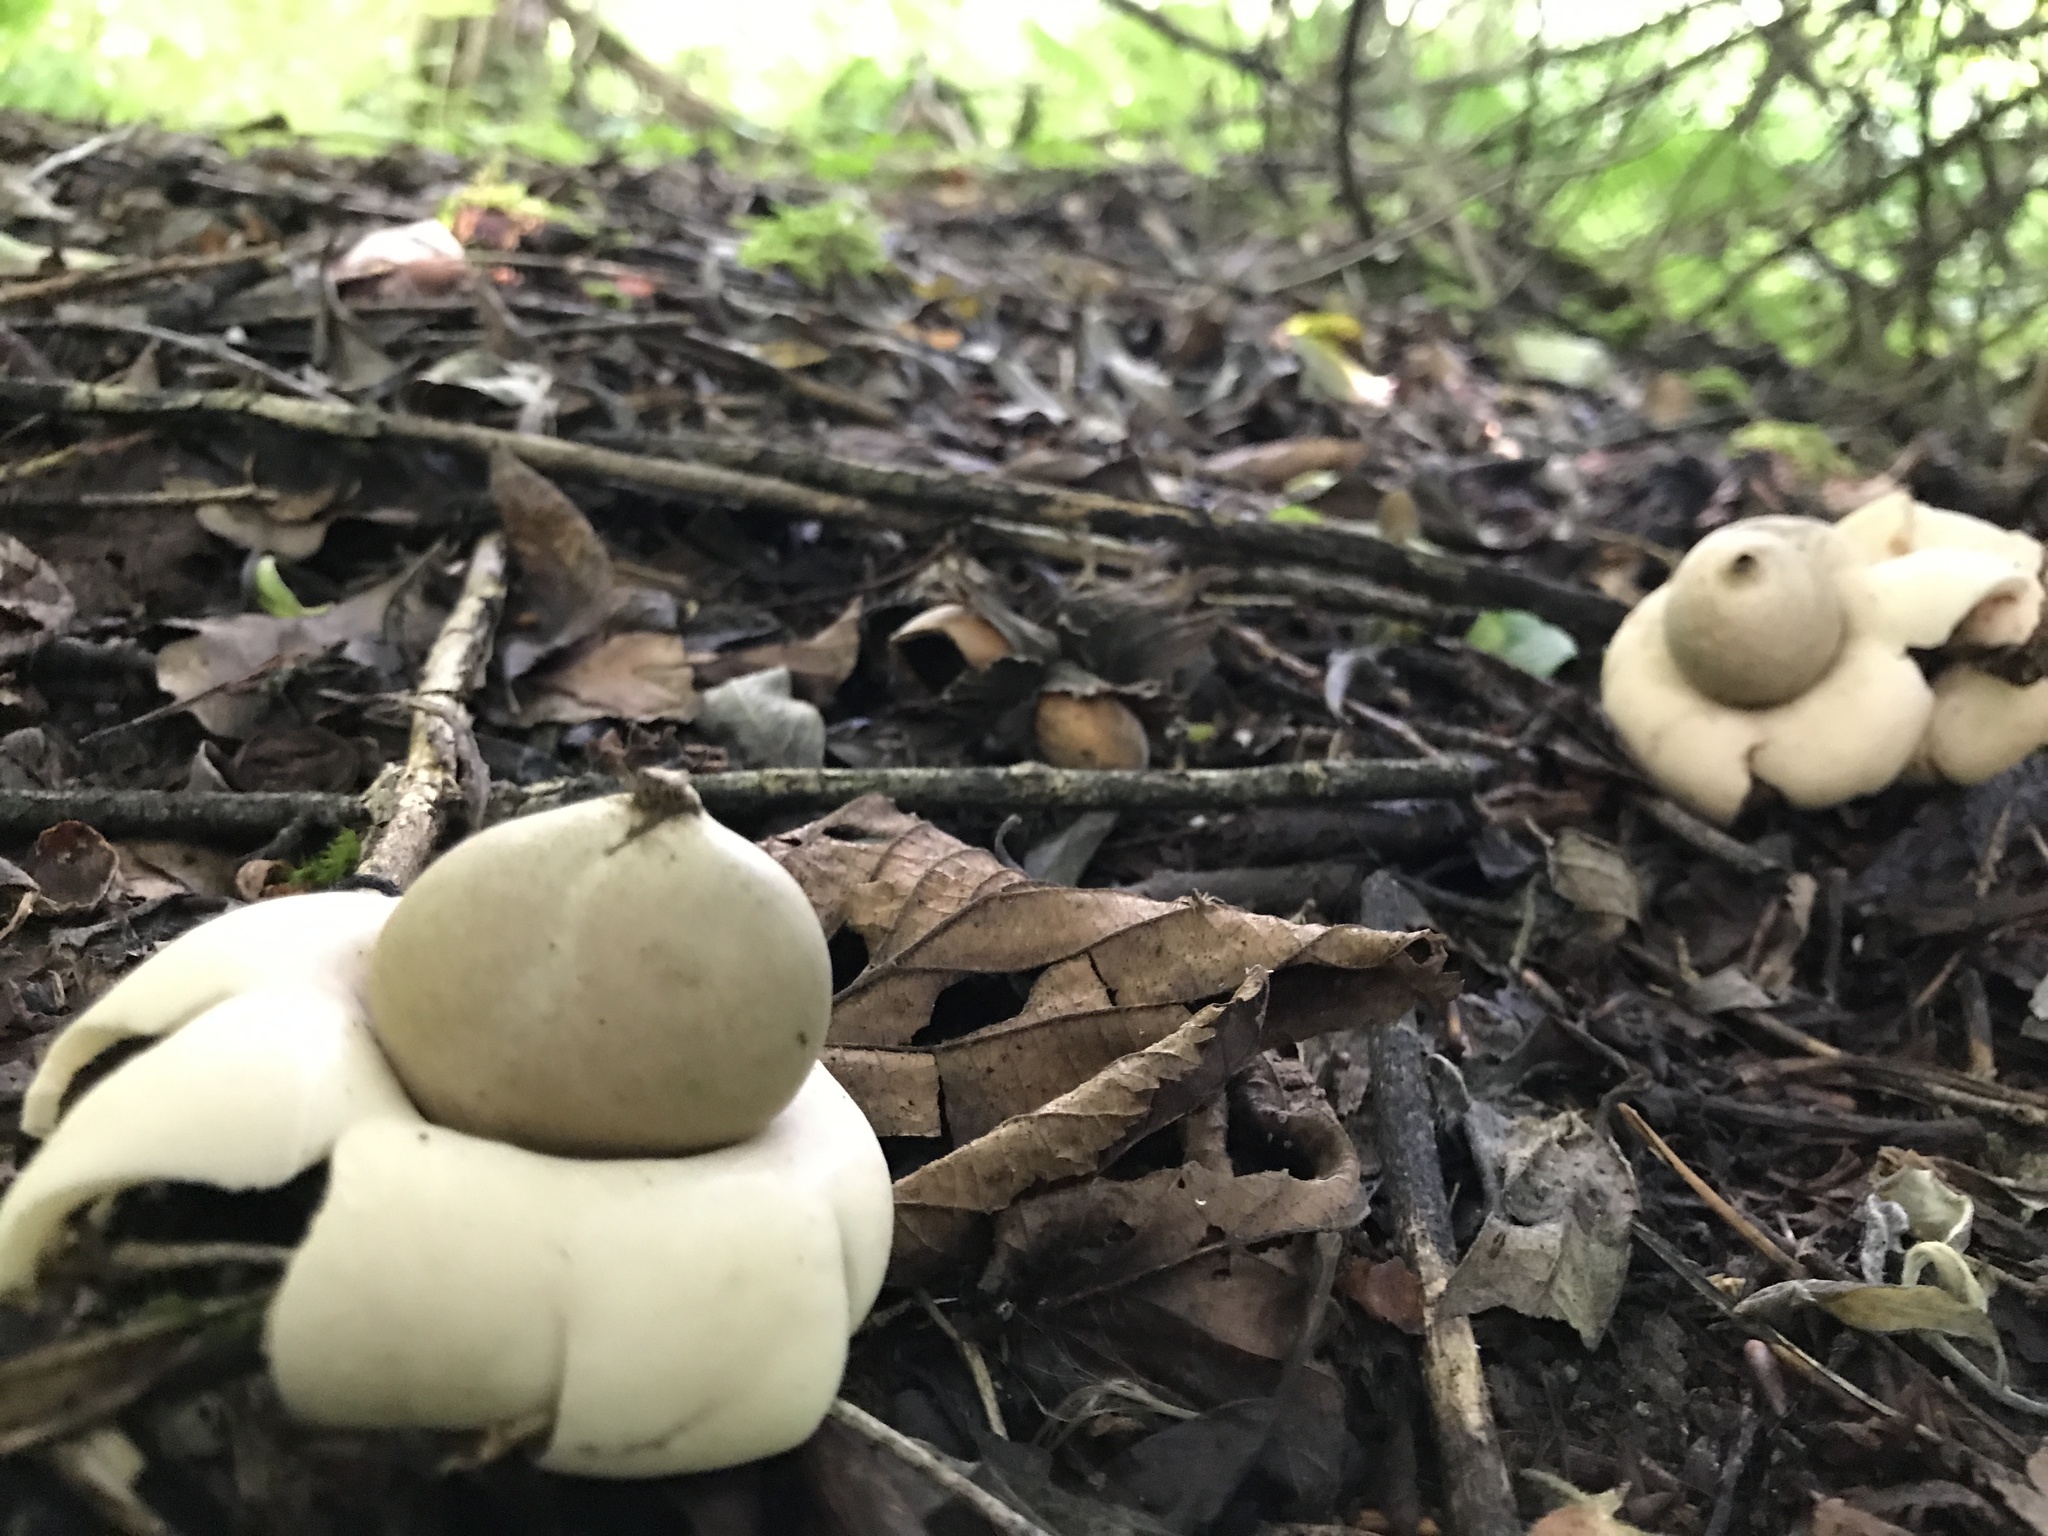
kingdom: Fungi
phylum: Basidiomycota
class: Agaricomycetes
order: Geastrales
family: Geastraceae
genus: Geastrum
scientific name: Geastrum fimbriatum
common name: Sessile earthstar
